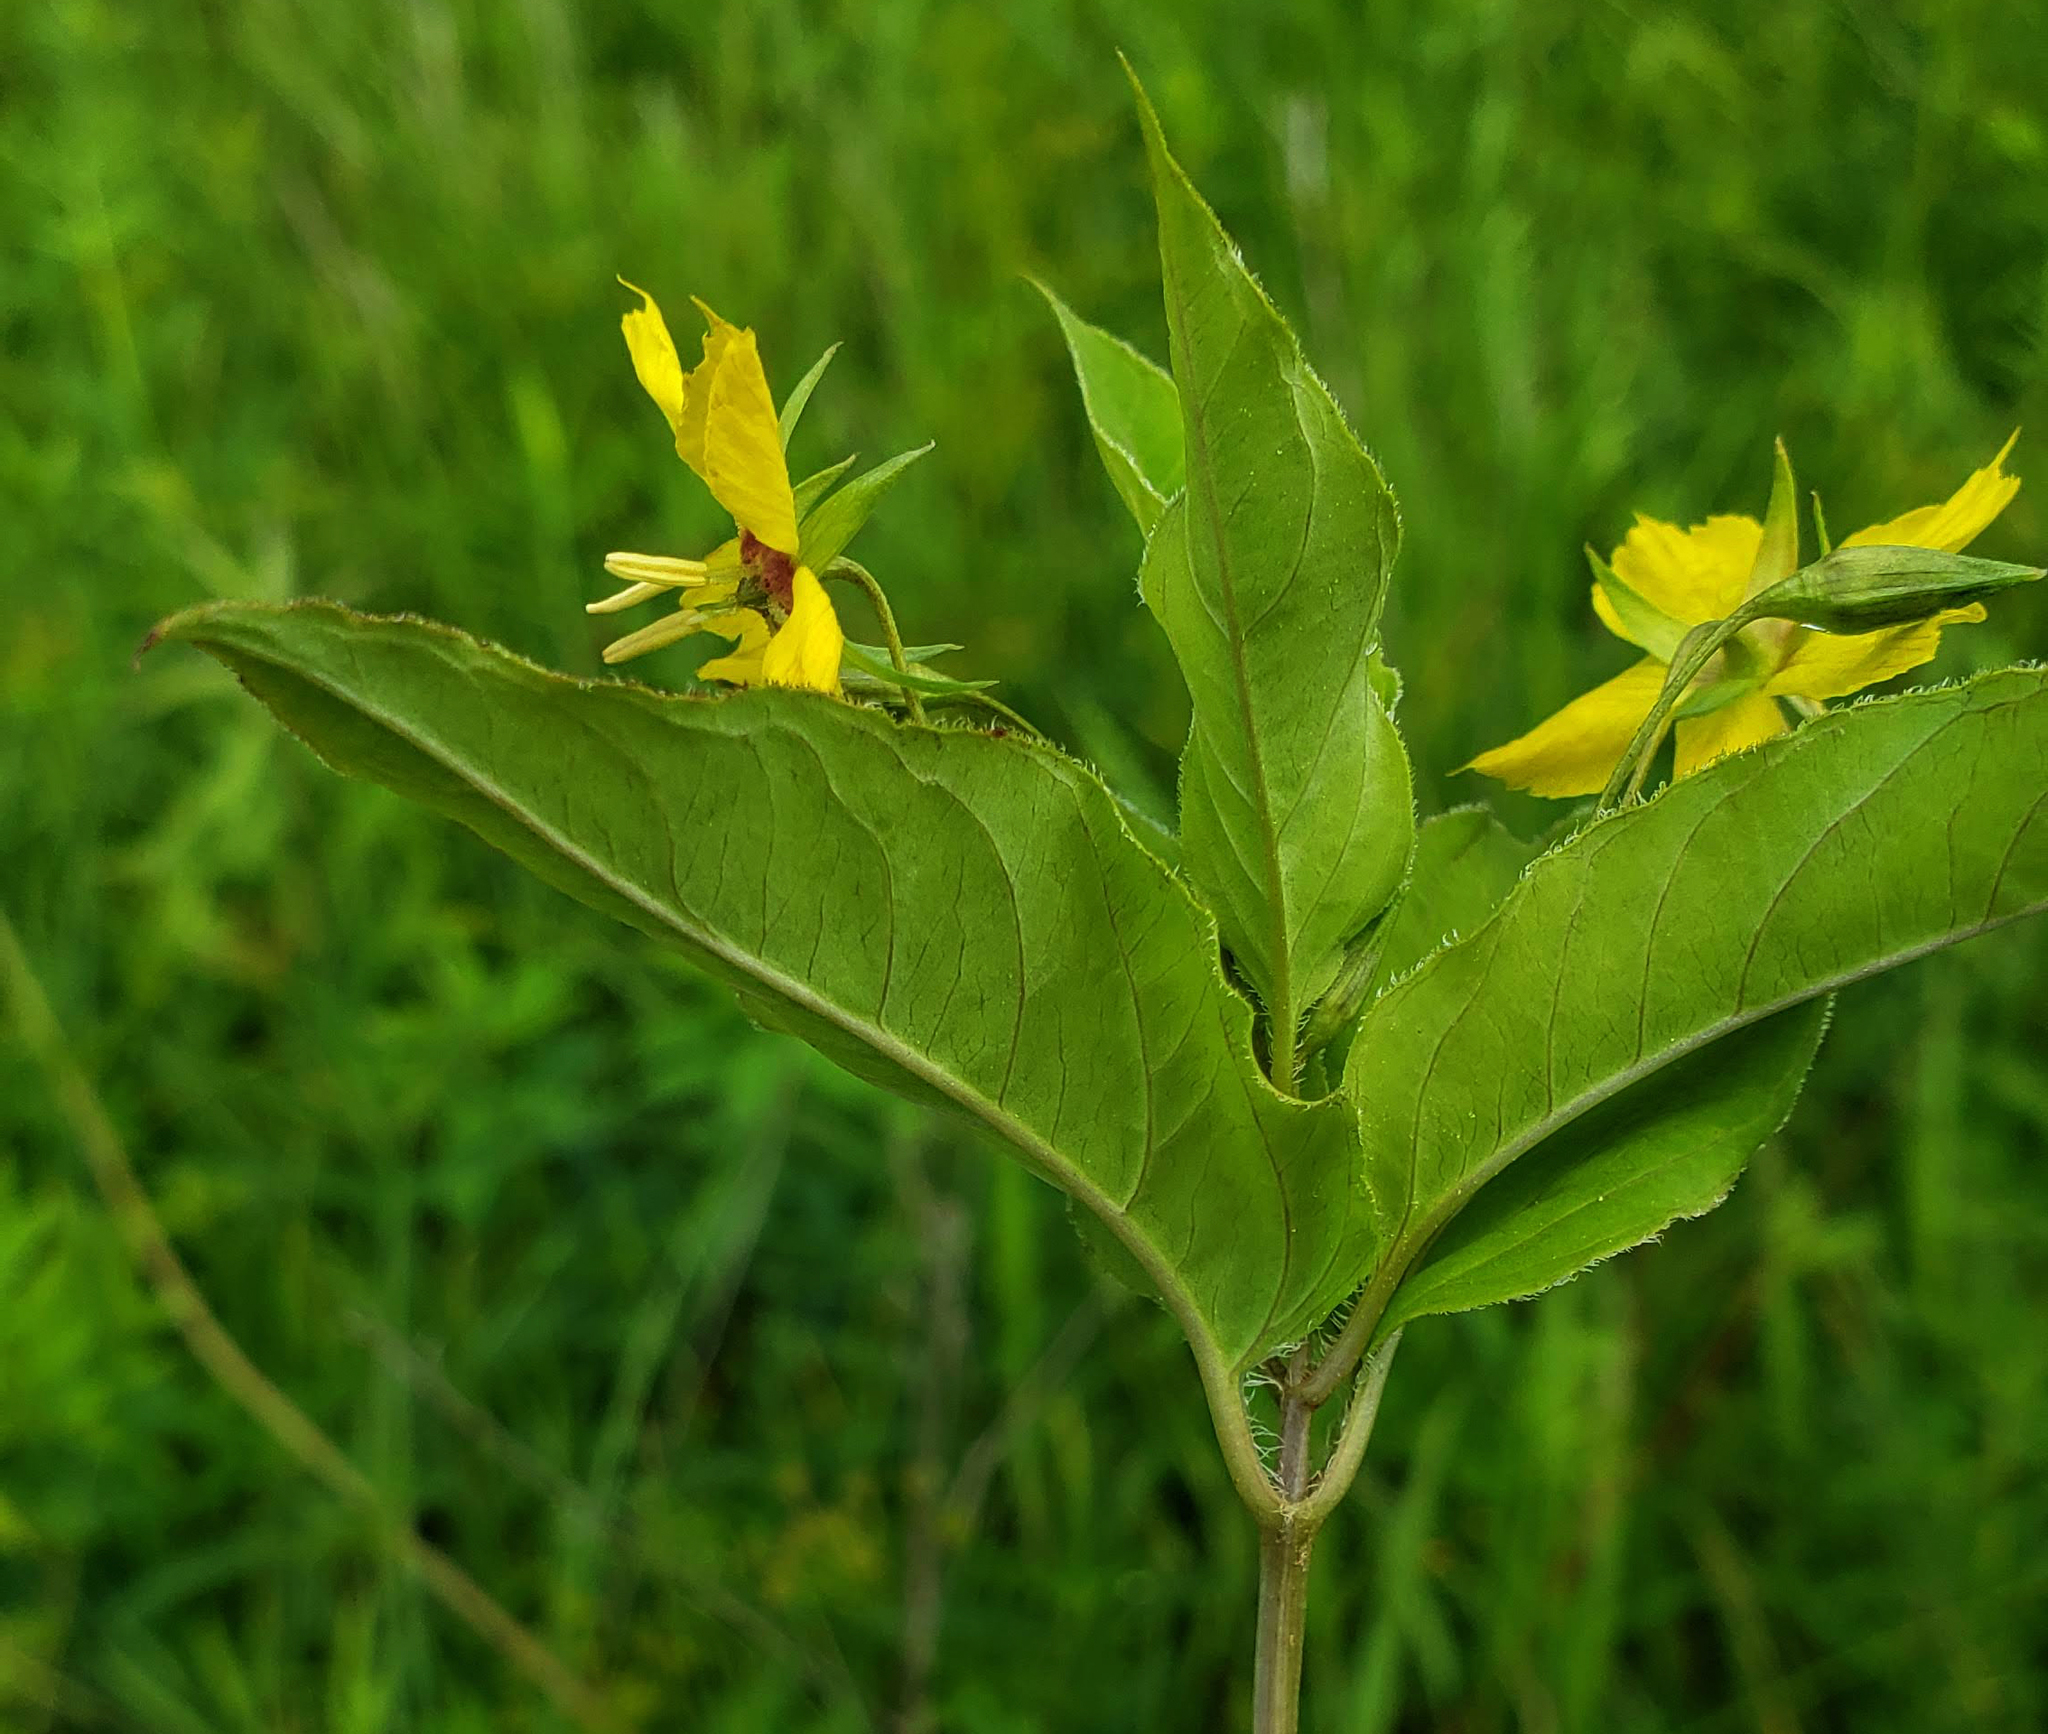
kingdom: Plantae
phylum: Tracheophyta
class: Magnoliopsida
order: Ericales
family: Primulaceae
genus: Lysimachia
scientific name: Lysimachia ciliata
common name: Fringed loosestrife
